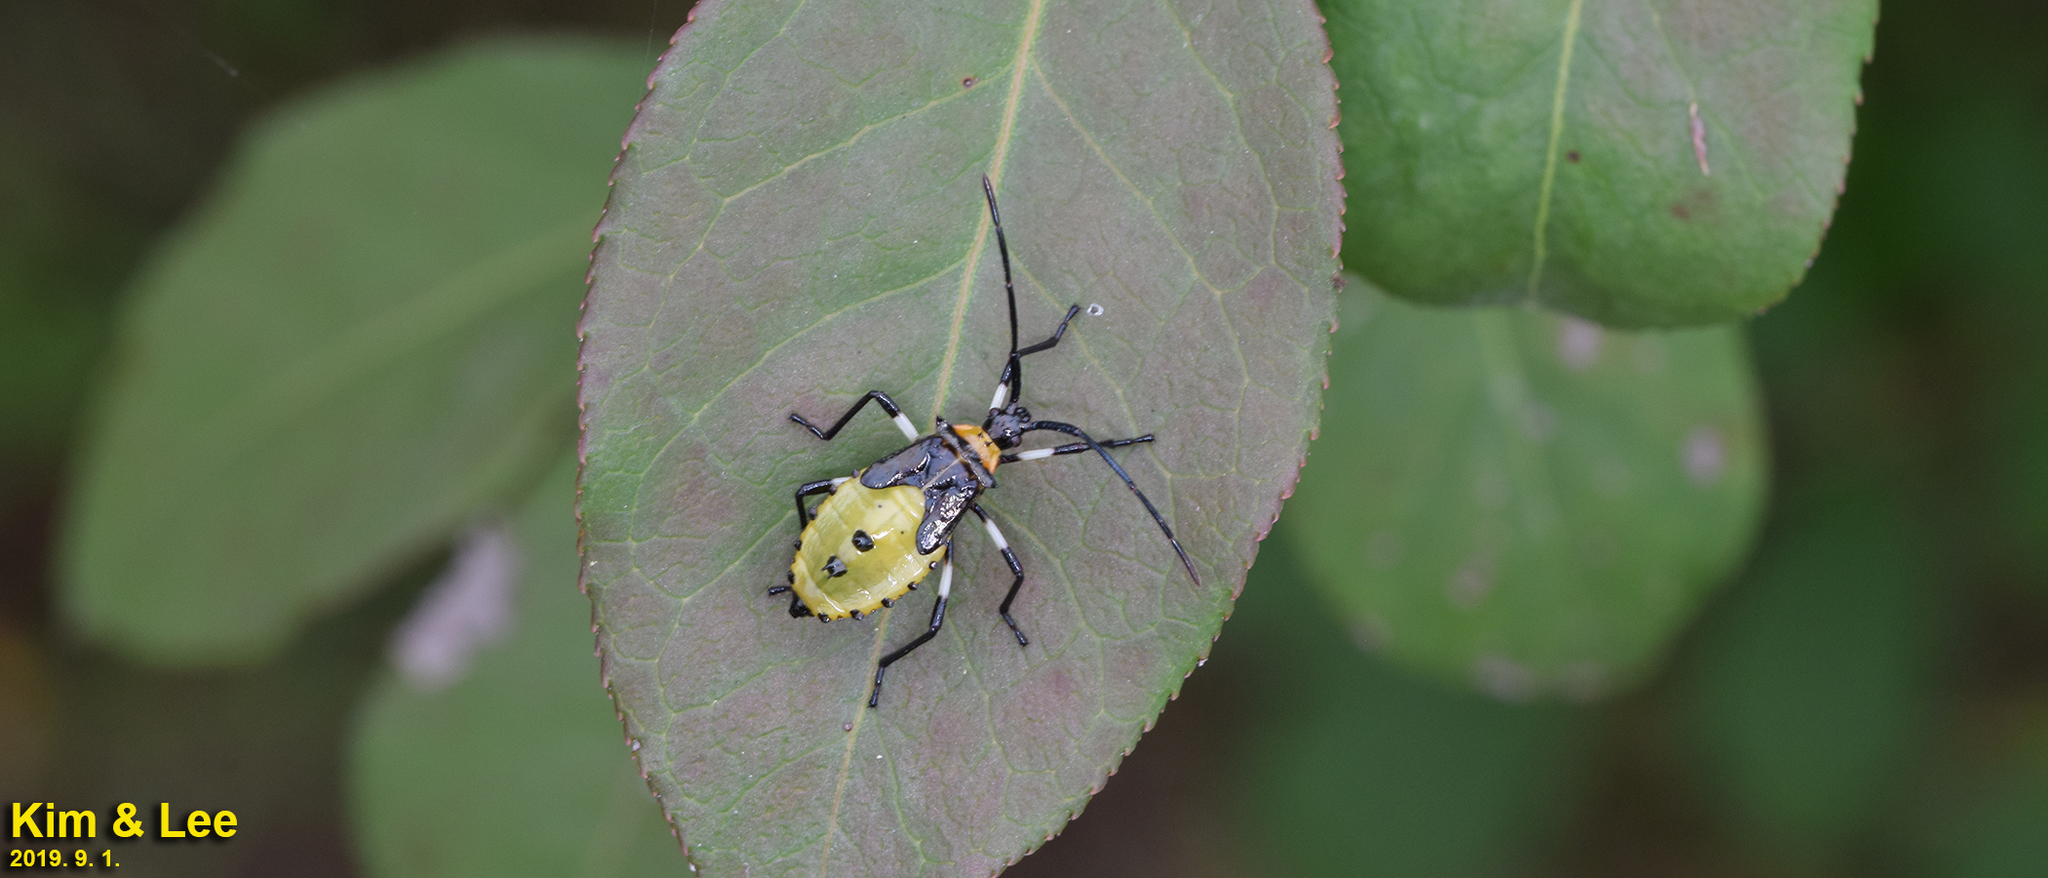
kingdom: Animalia
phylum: Arthropoda
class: Insecta
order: Hemiptera
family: Coreidae
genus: Plinachtus
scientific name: Plinachtus bicoloripes
